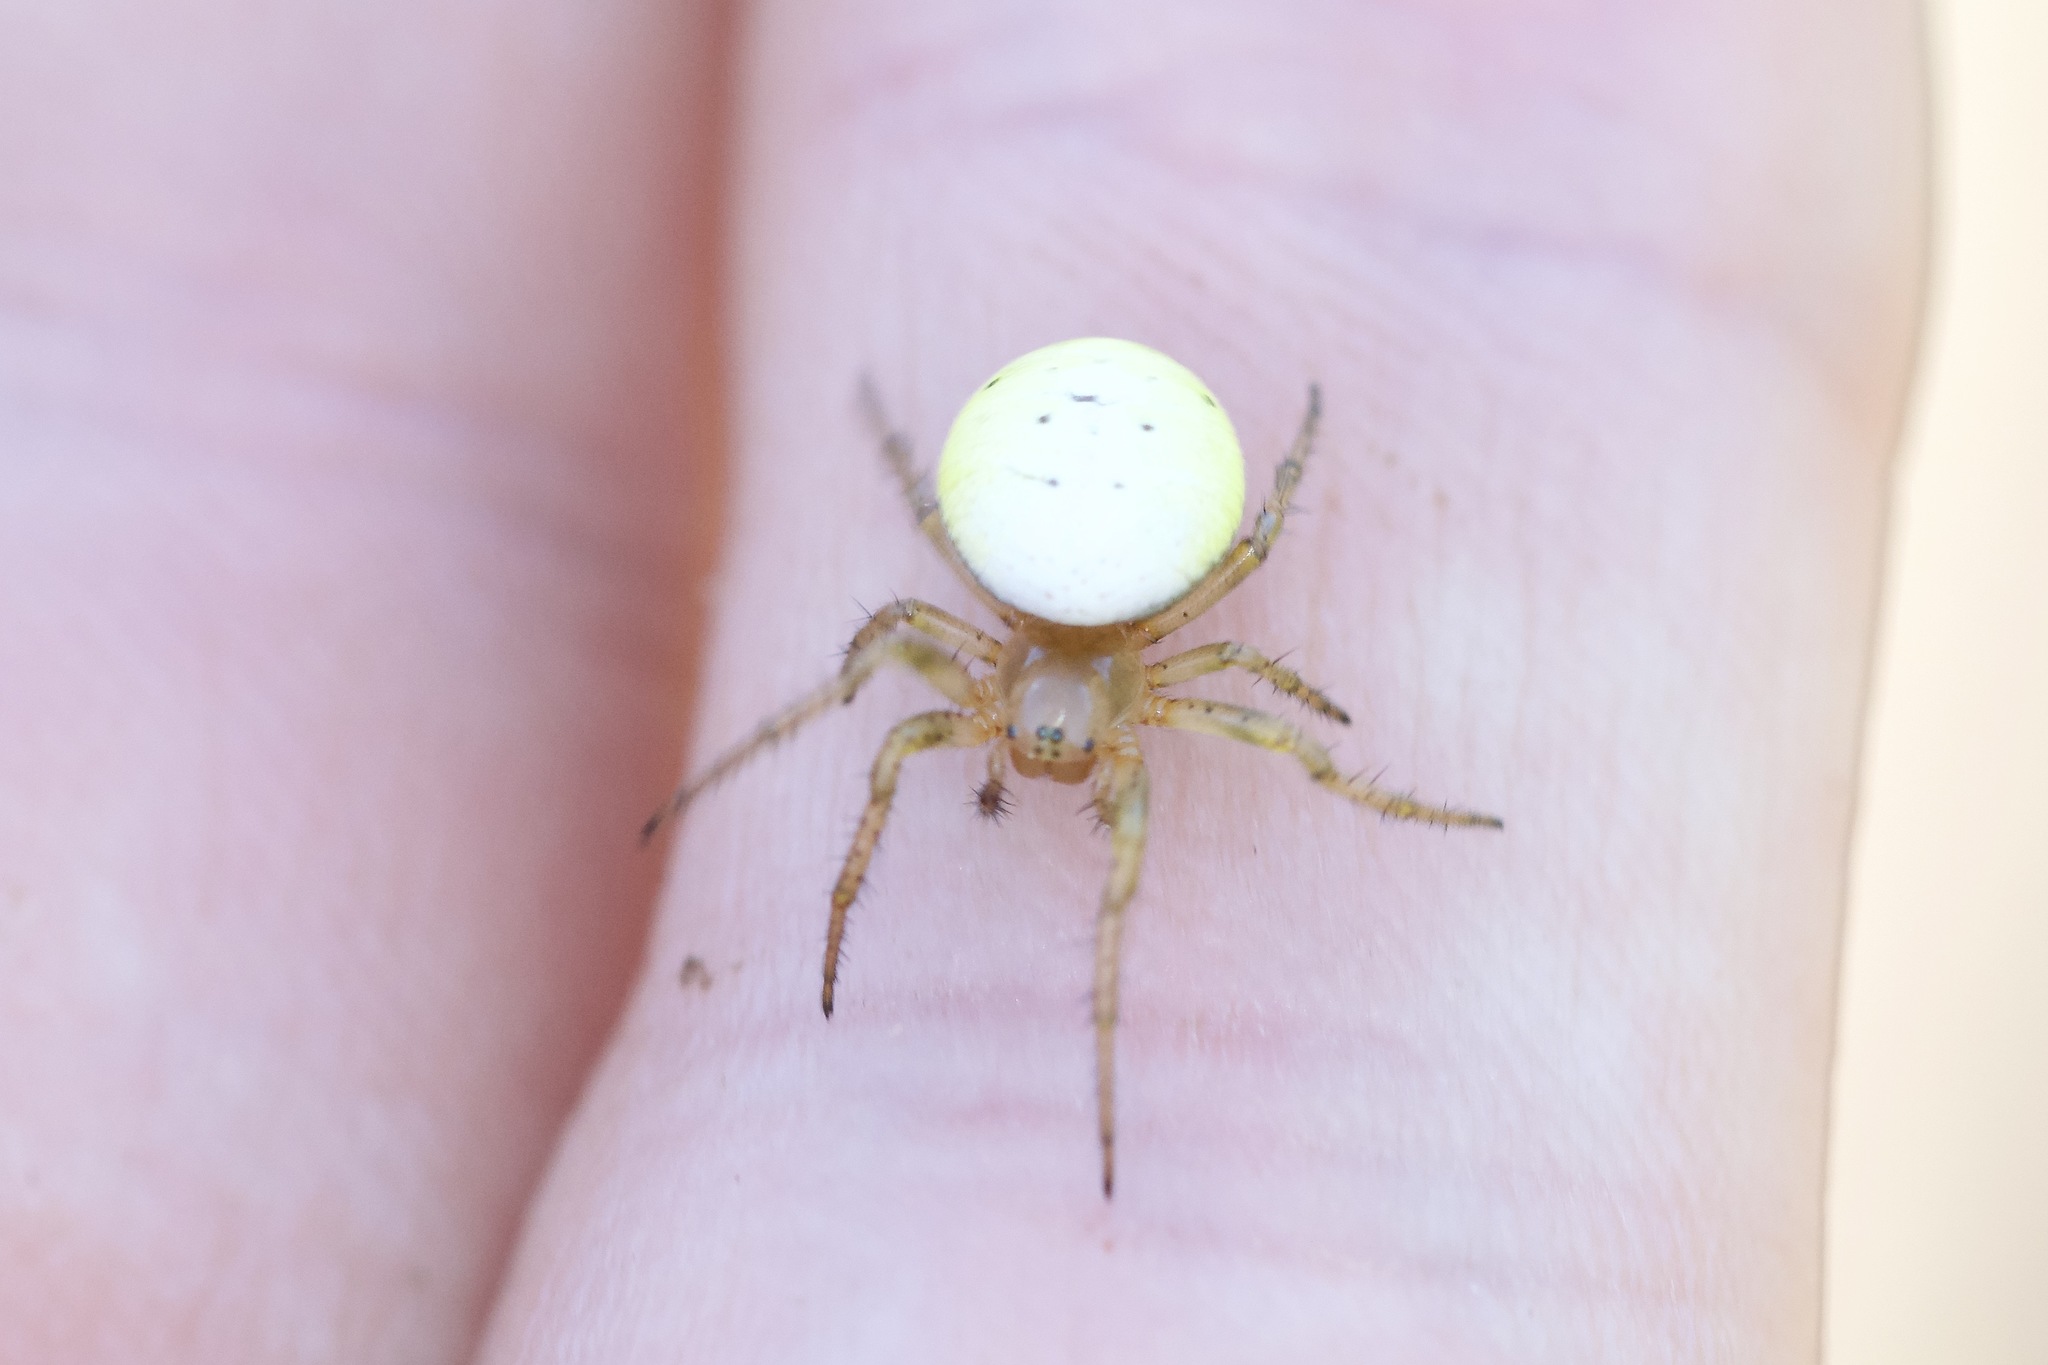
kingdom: Animalia
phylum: Arthropoda
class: Arachnida
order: Araneae
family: Araneidae
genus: Araniella
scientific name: Araniella displicata
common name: Sixspotted orb weaver
